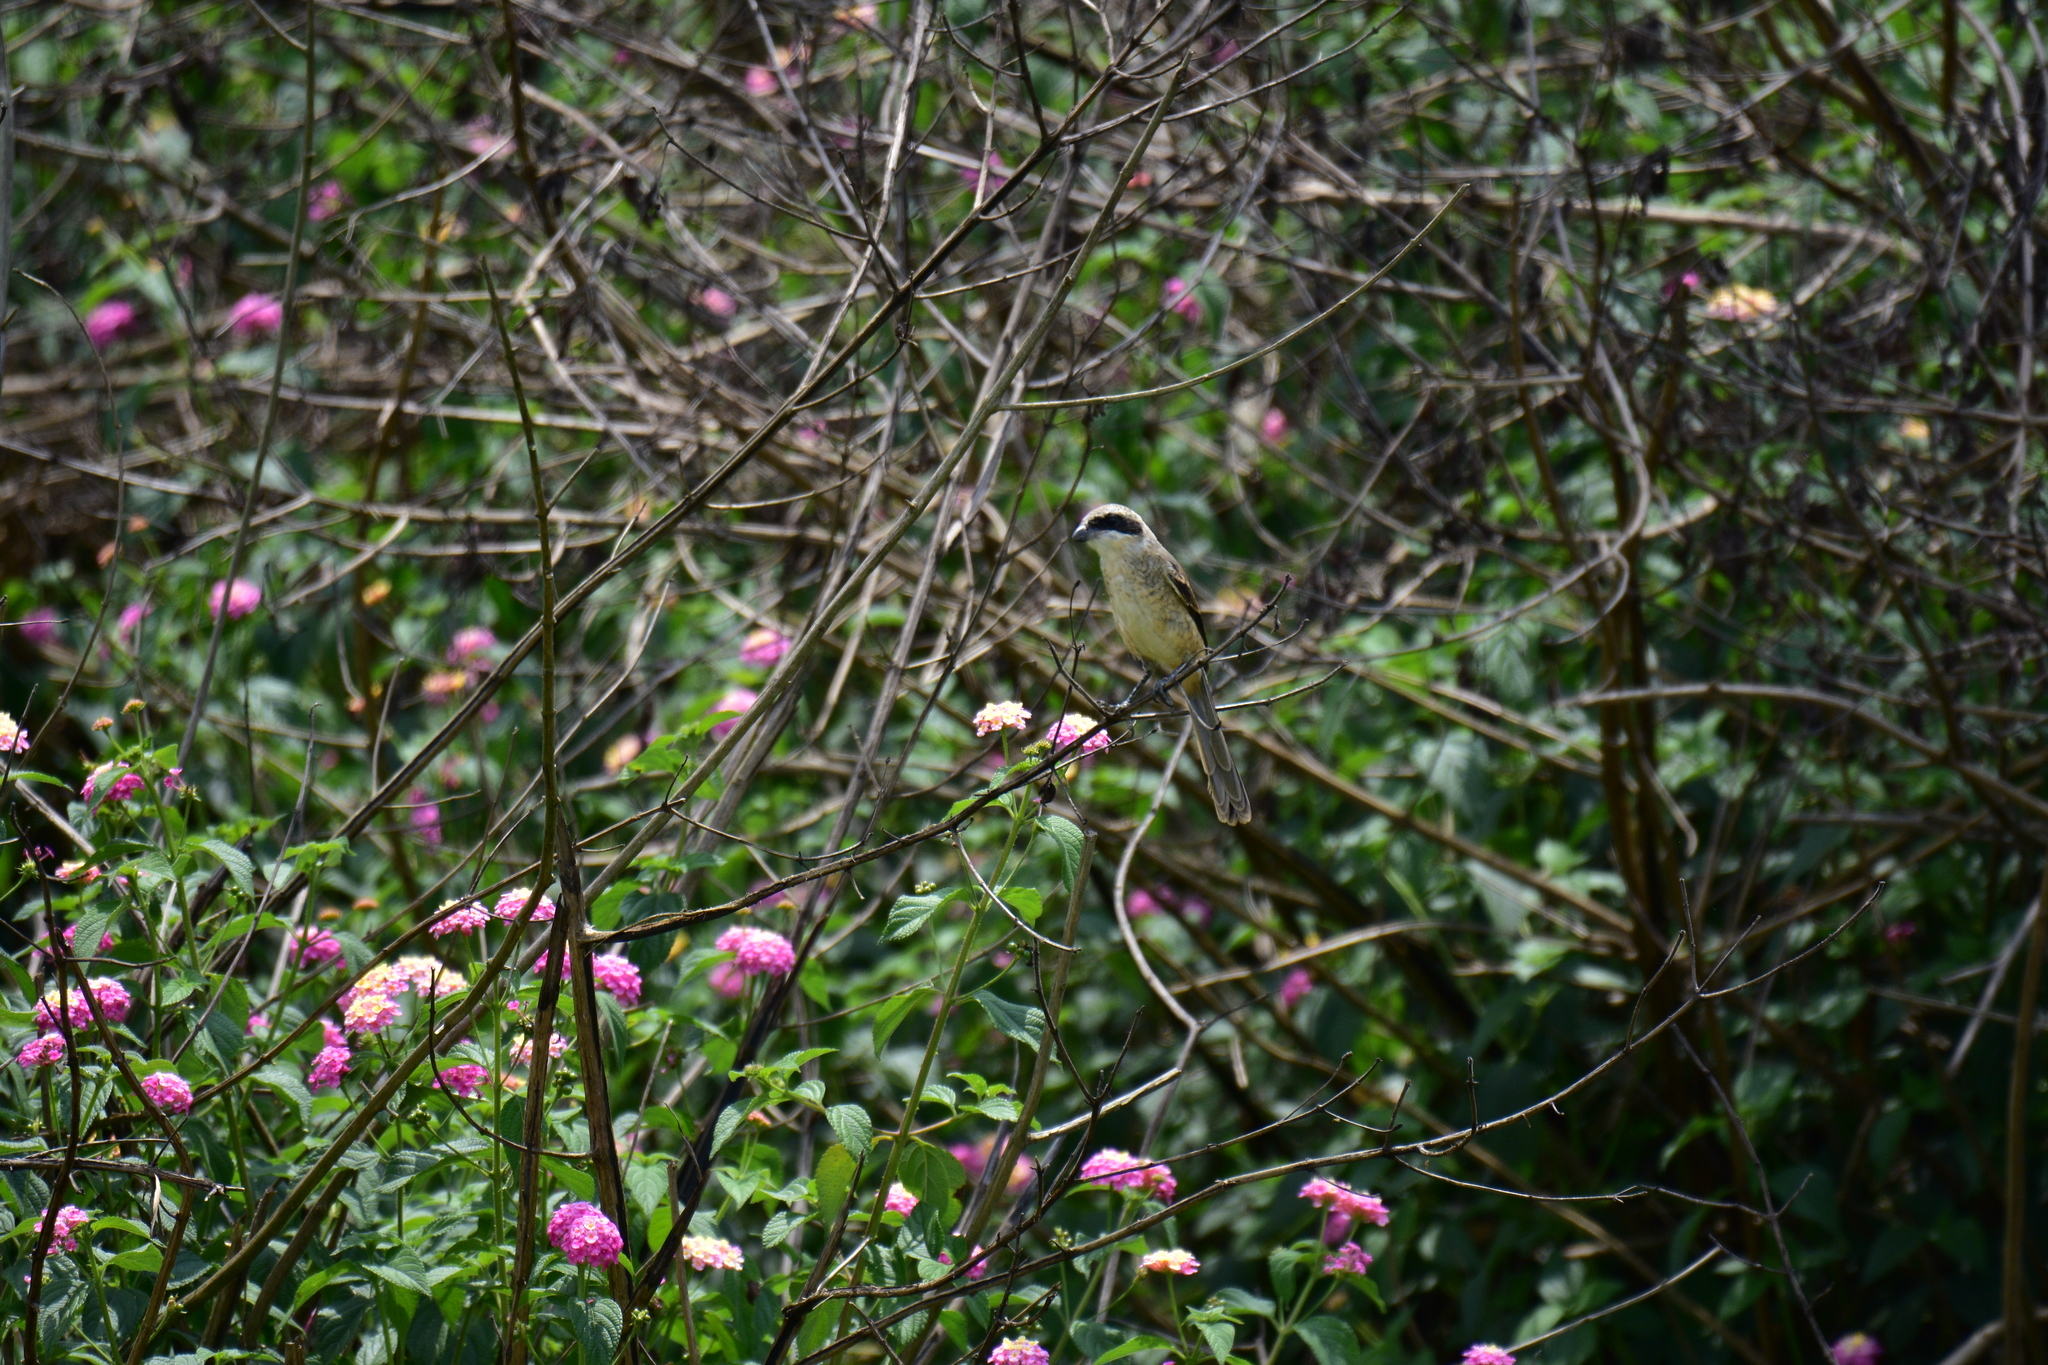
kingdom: Animalia
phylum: Chordata
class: Aves
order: Passeriformes
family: Laniidae
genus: Lanius
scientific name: Lanius schach
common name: Long-tailed shrike
